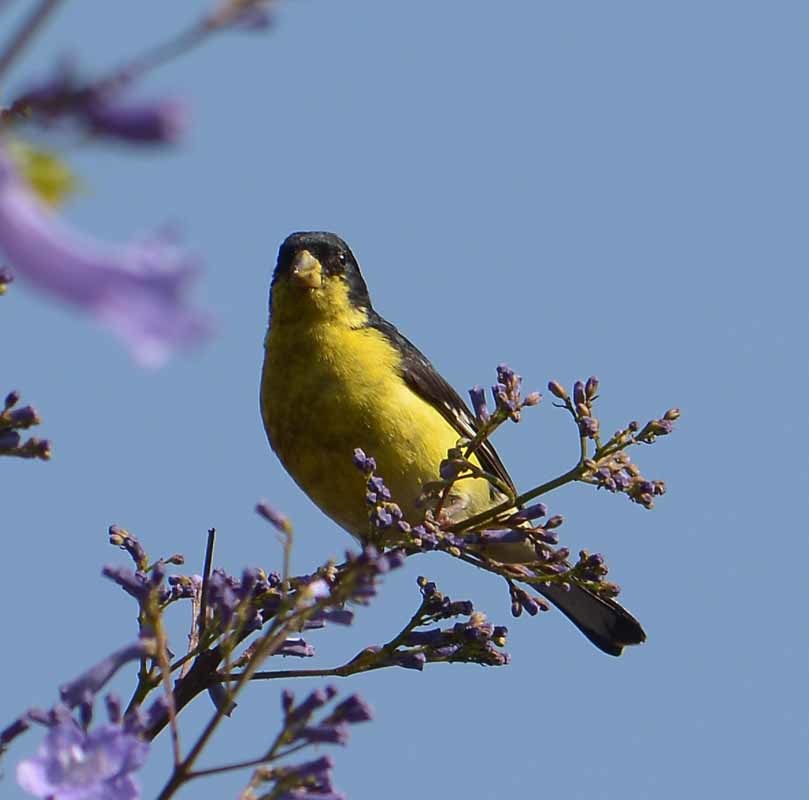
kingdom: Animalia
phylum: Chordata
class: Aves
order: Passeriformes
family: Fringillidae
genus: Spinus
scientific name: Spinus psaltria
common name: Lesser goldfinch
